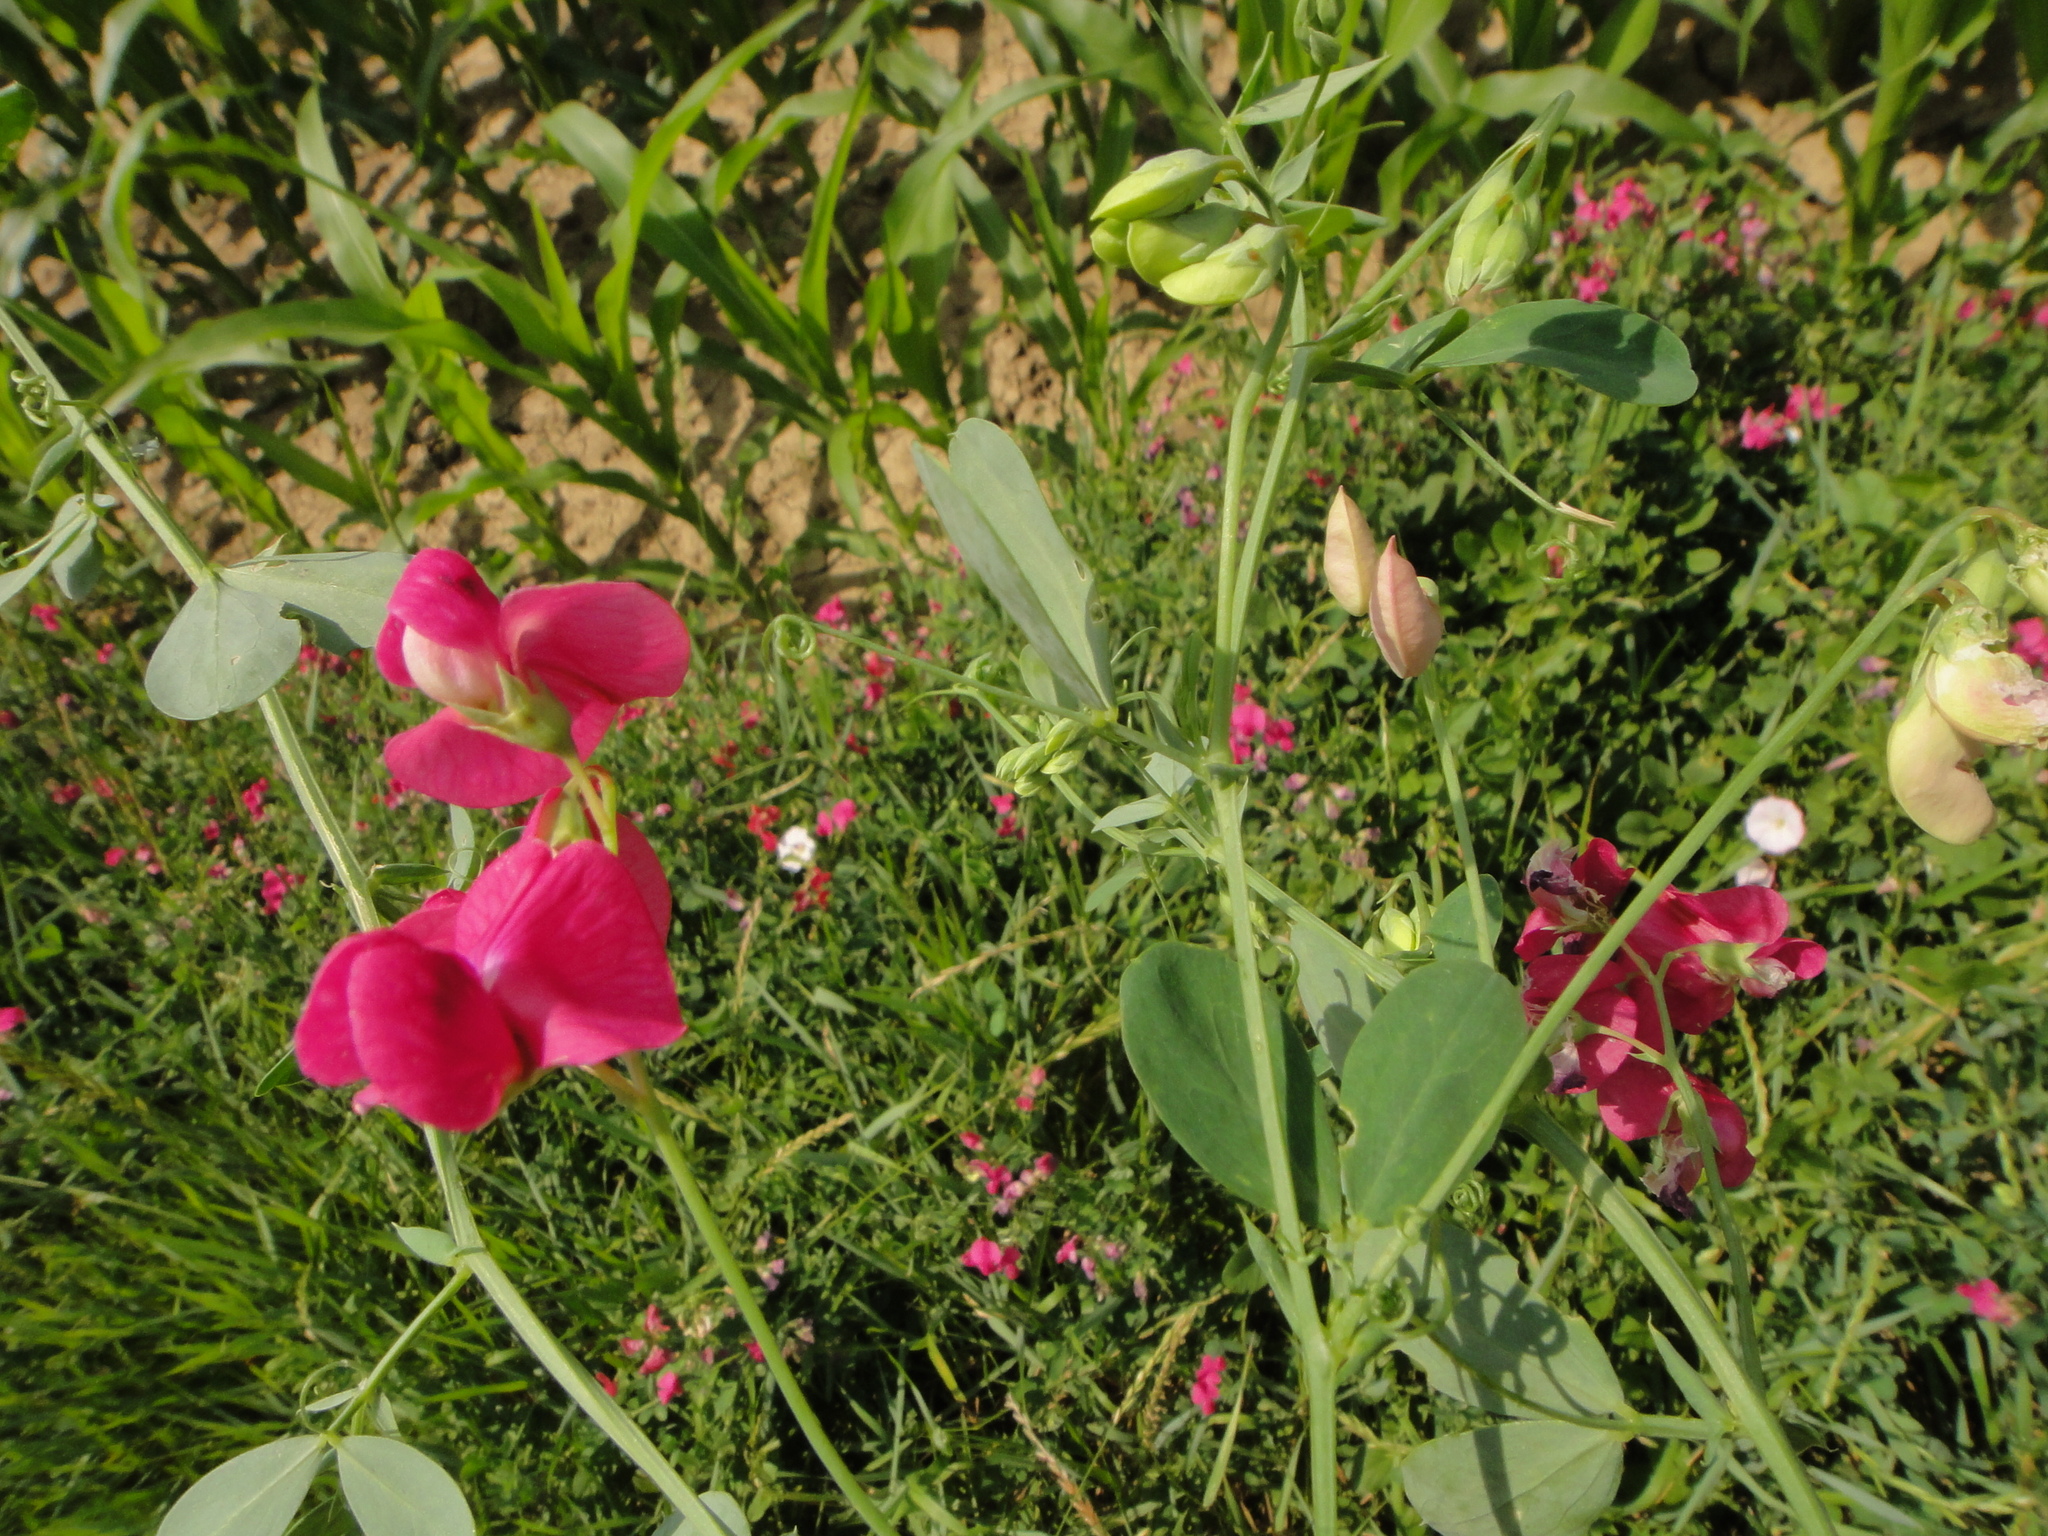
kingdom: Plantae
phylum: Tracheophyta
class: Magnoliopsida
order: Fabales
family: Fabaceae
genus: Lathyrus
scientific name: Lathyrus tuberosus
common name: Tuberous pea
